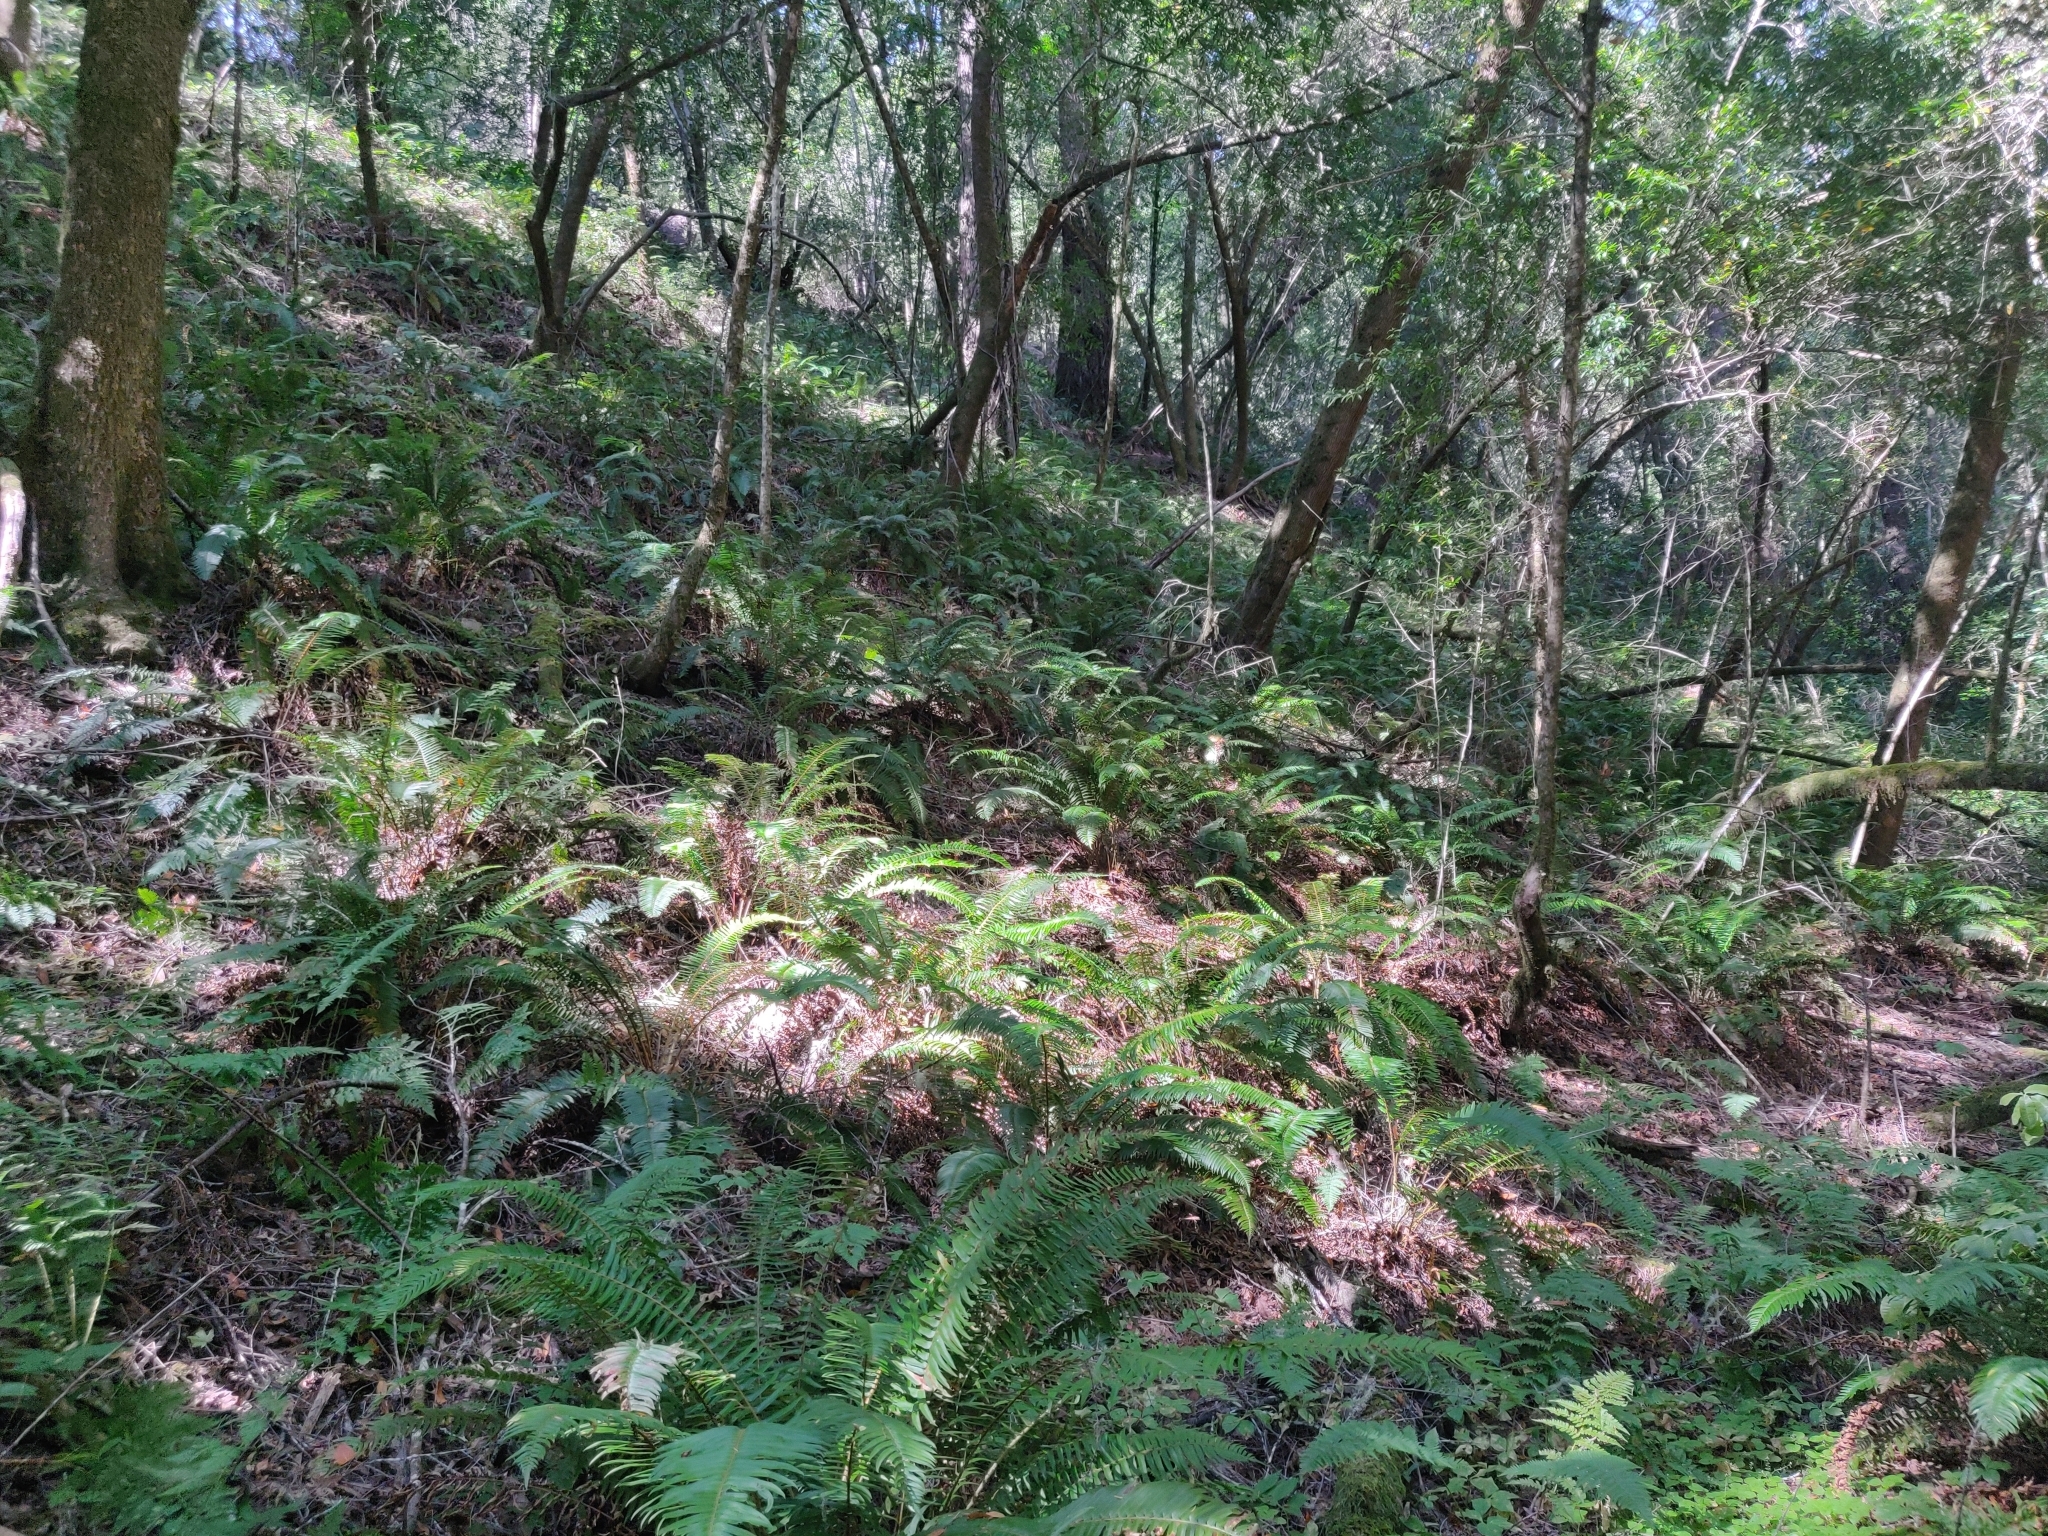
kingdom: Plantae
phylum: Tracheophyta
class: Polypodiopsida
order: Polypodiales
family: Dryopteridaceae
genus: Polystichum
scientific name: Polystichum munitum
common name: Western sword-fern
